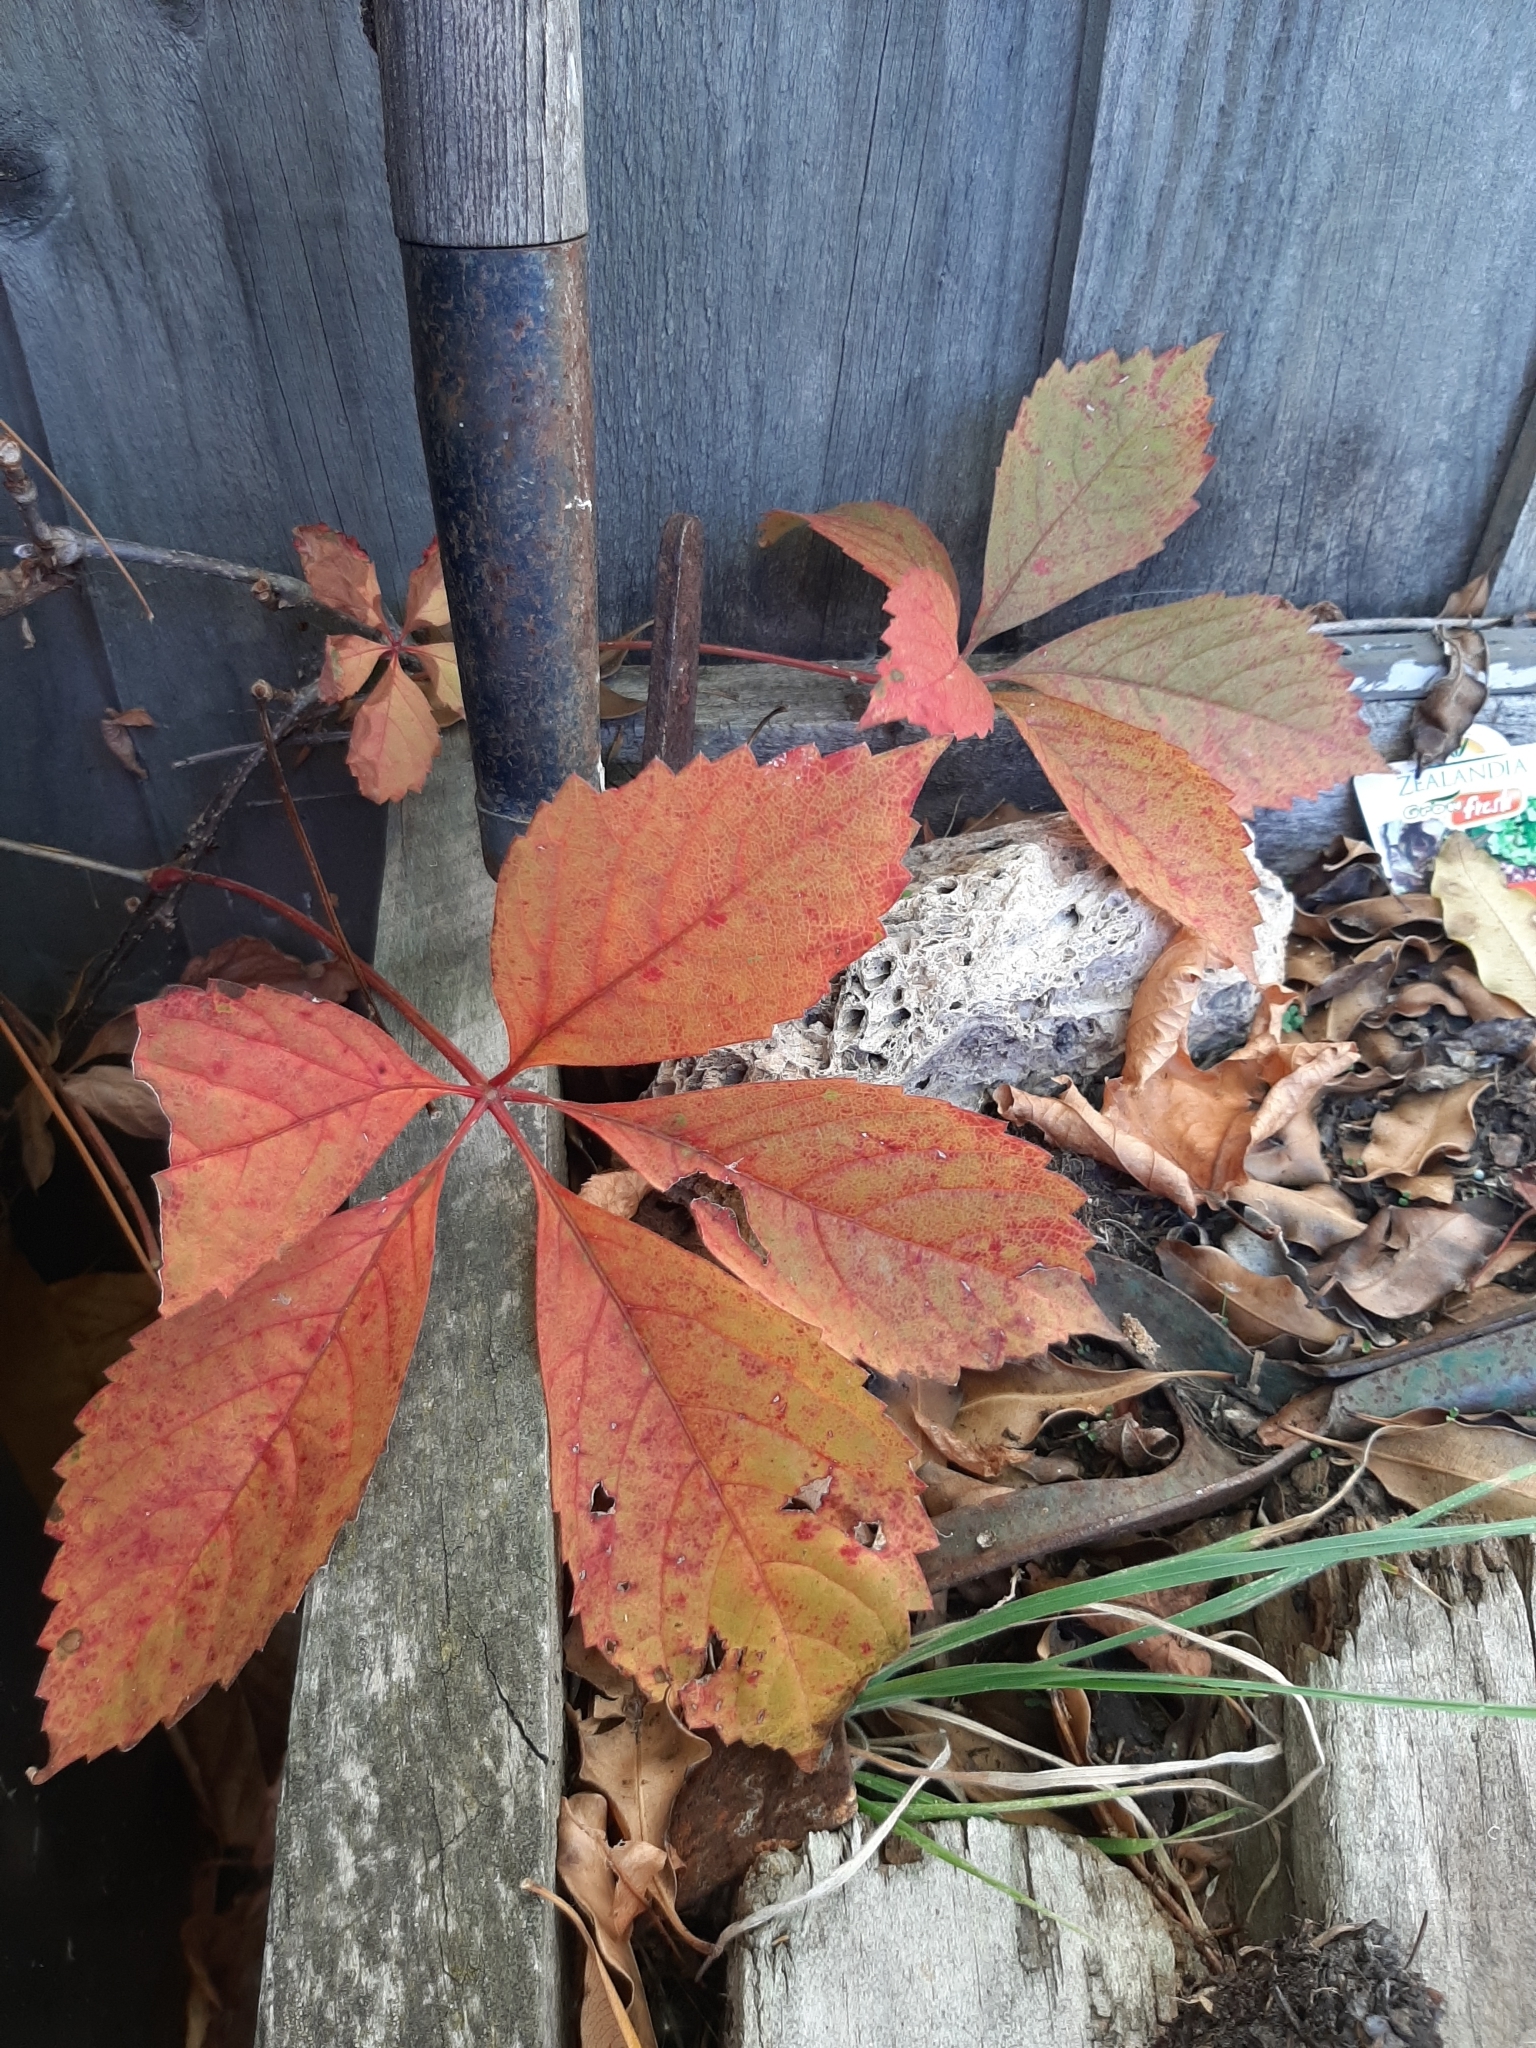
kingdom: Plantae
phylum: Tracheophyta
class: Magnoliopsida
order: Vitales
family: Vitaceae
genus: Parthenocissus
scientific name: Parthenocissus quinquefolia
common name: Virginia-creeper
